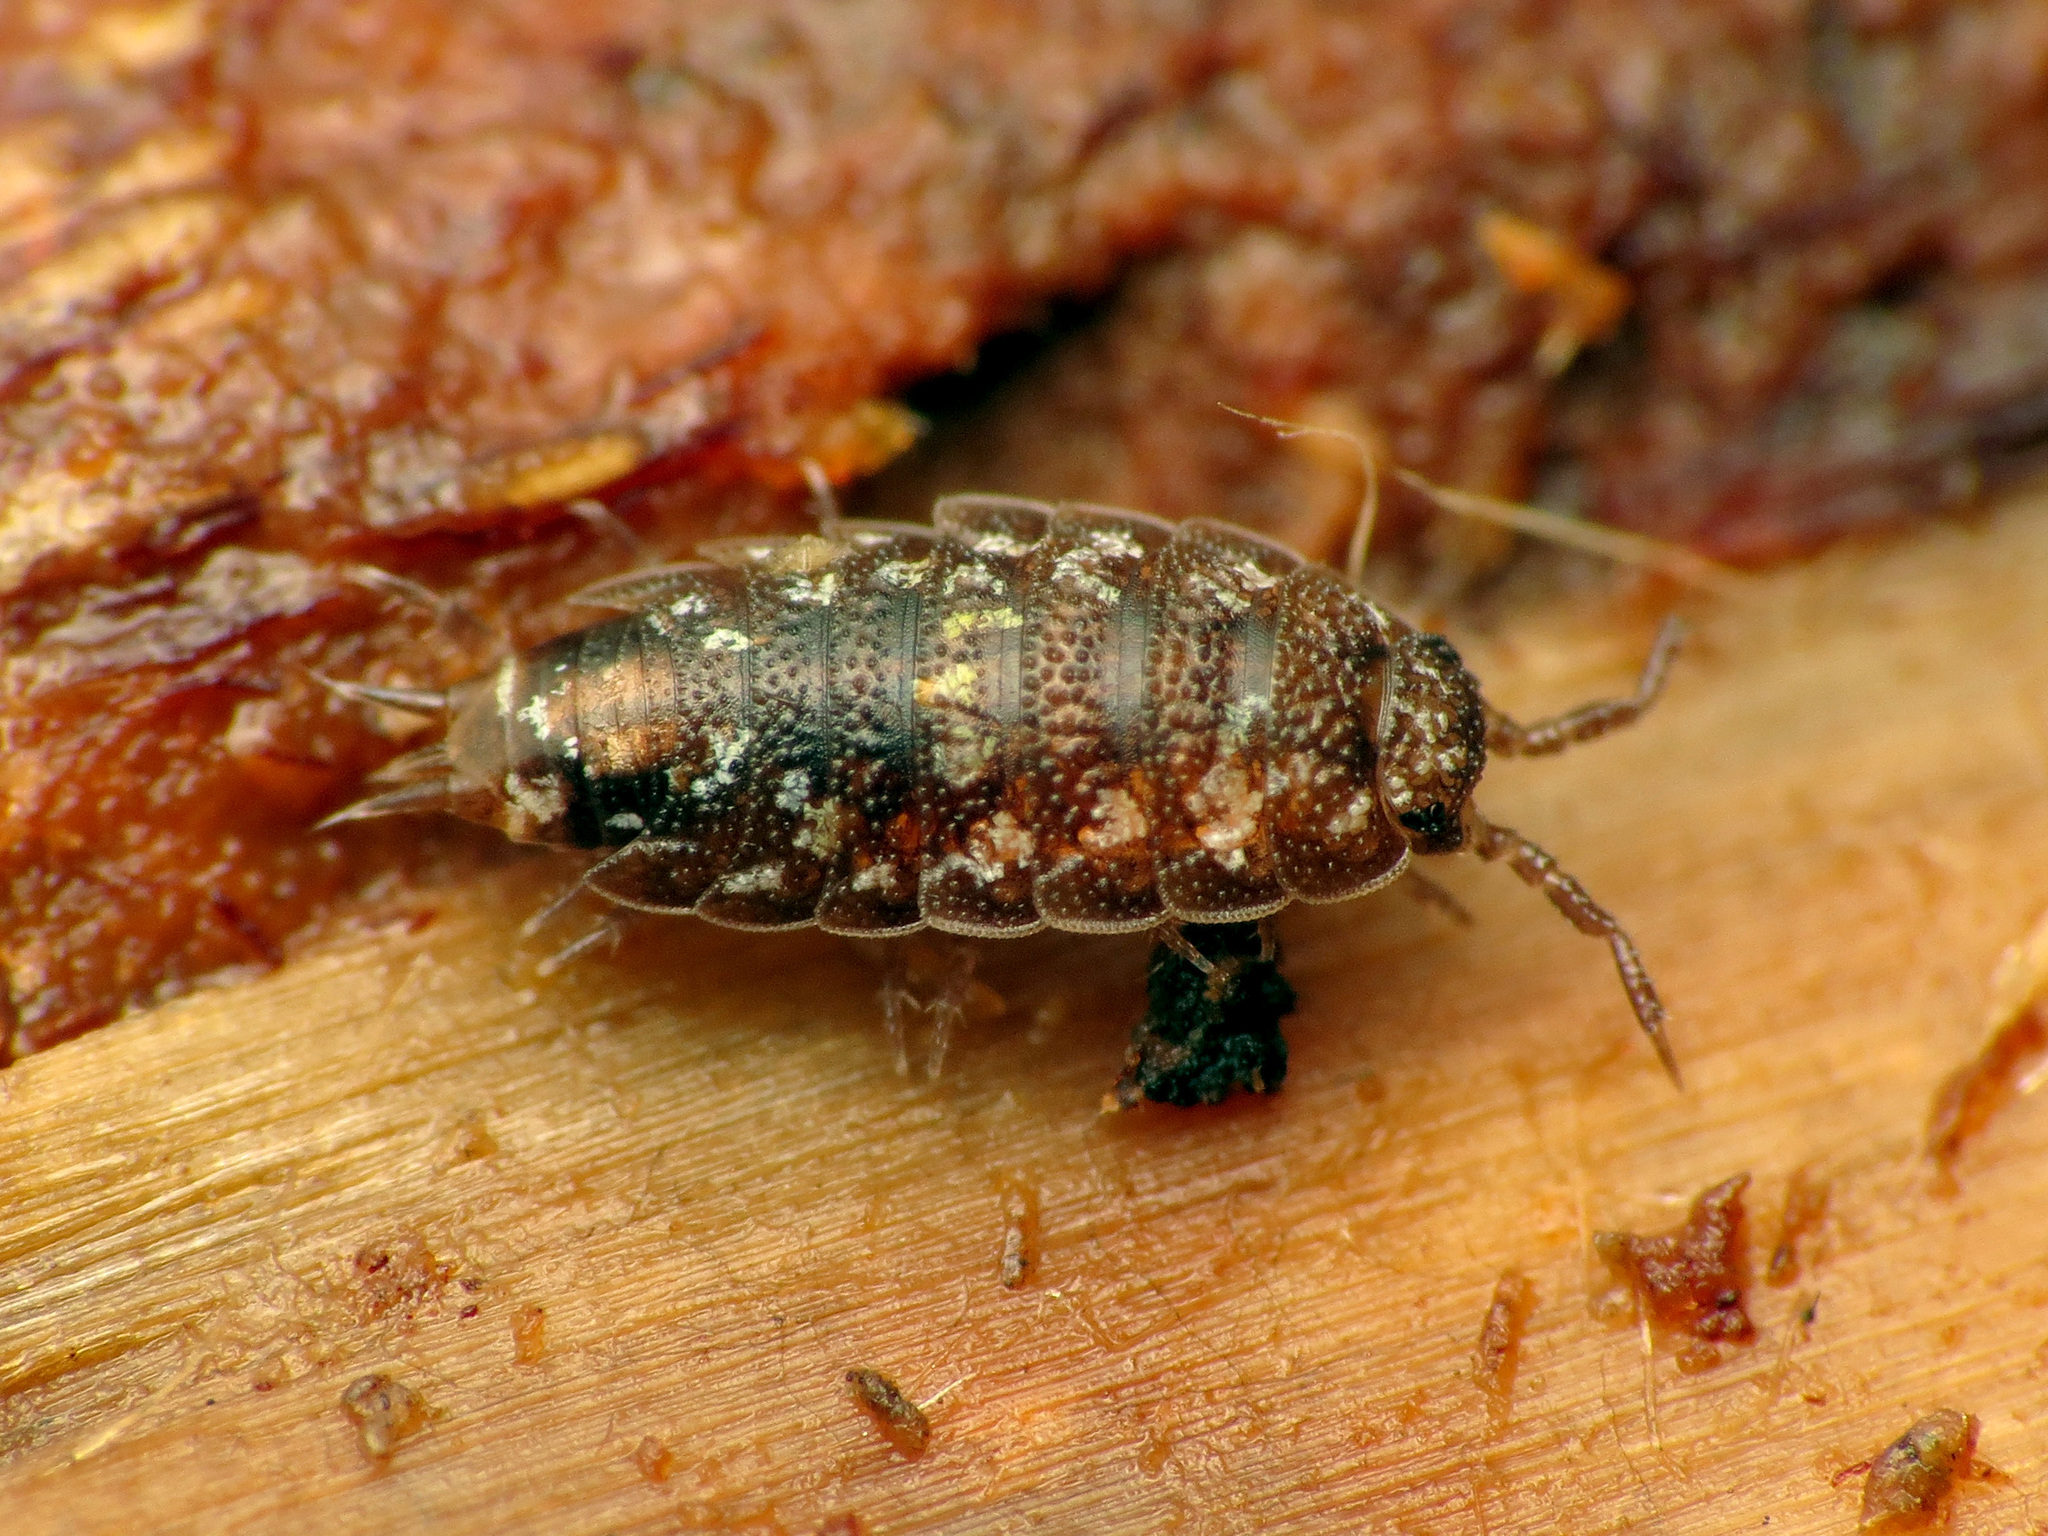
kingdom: Animalia
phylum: Arthropoda
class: Malacostraca
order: Isopoda
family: Styloniscidae
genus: Styloniscus
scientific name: Styloniscus otakensis
